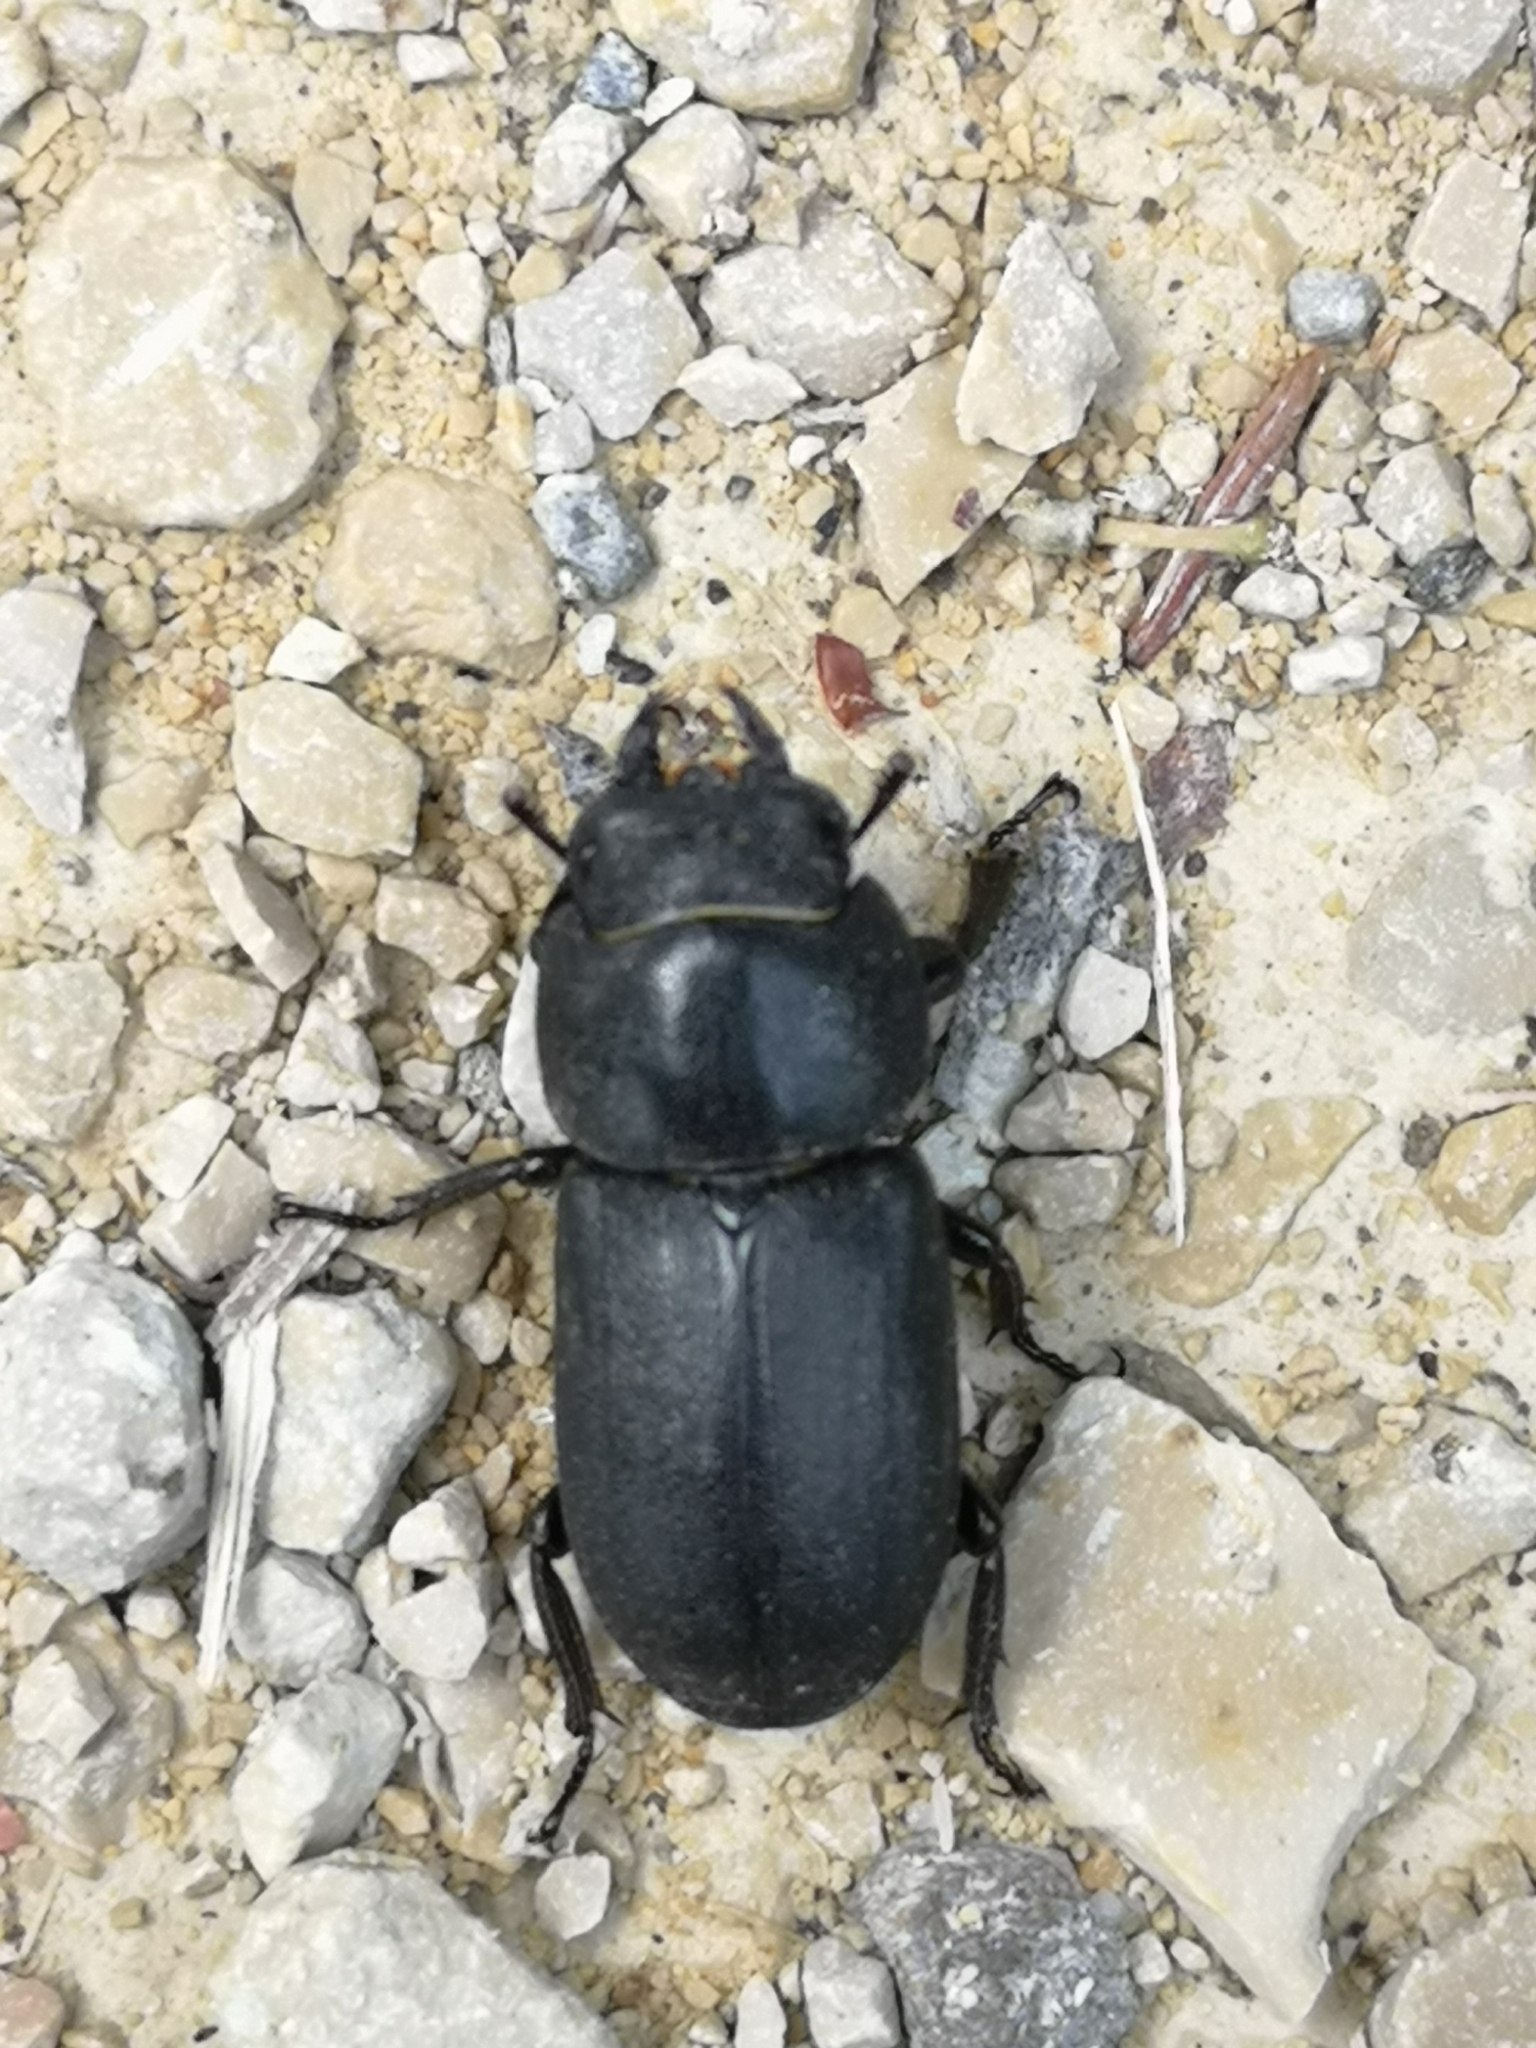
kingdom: Animalia
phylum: Arthropoda
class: Insecta
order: Coleoptera
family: Lucanidae
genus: Dorcus
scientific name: Dorcus parallelipipedus
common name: Lesser stag beetle
